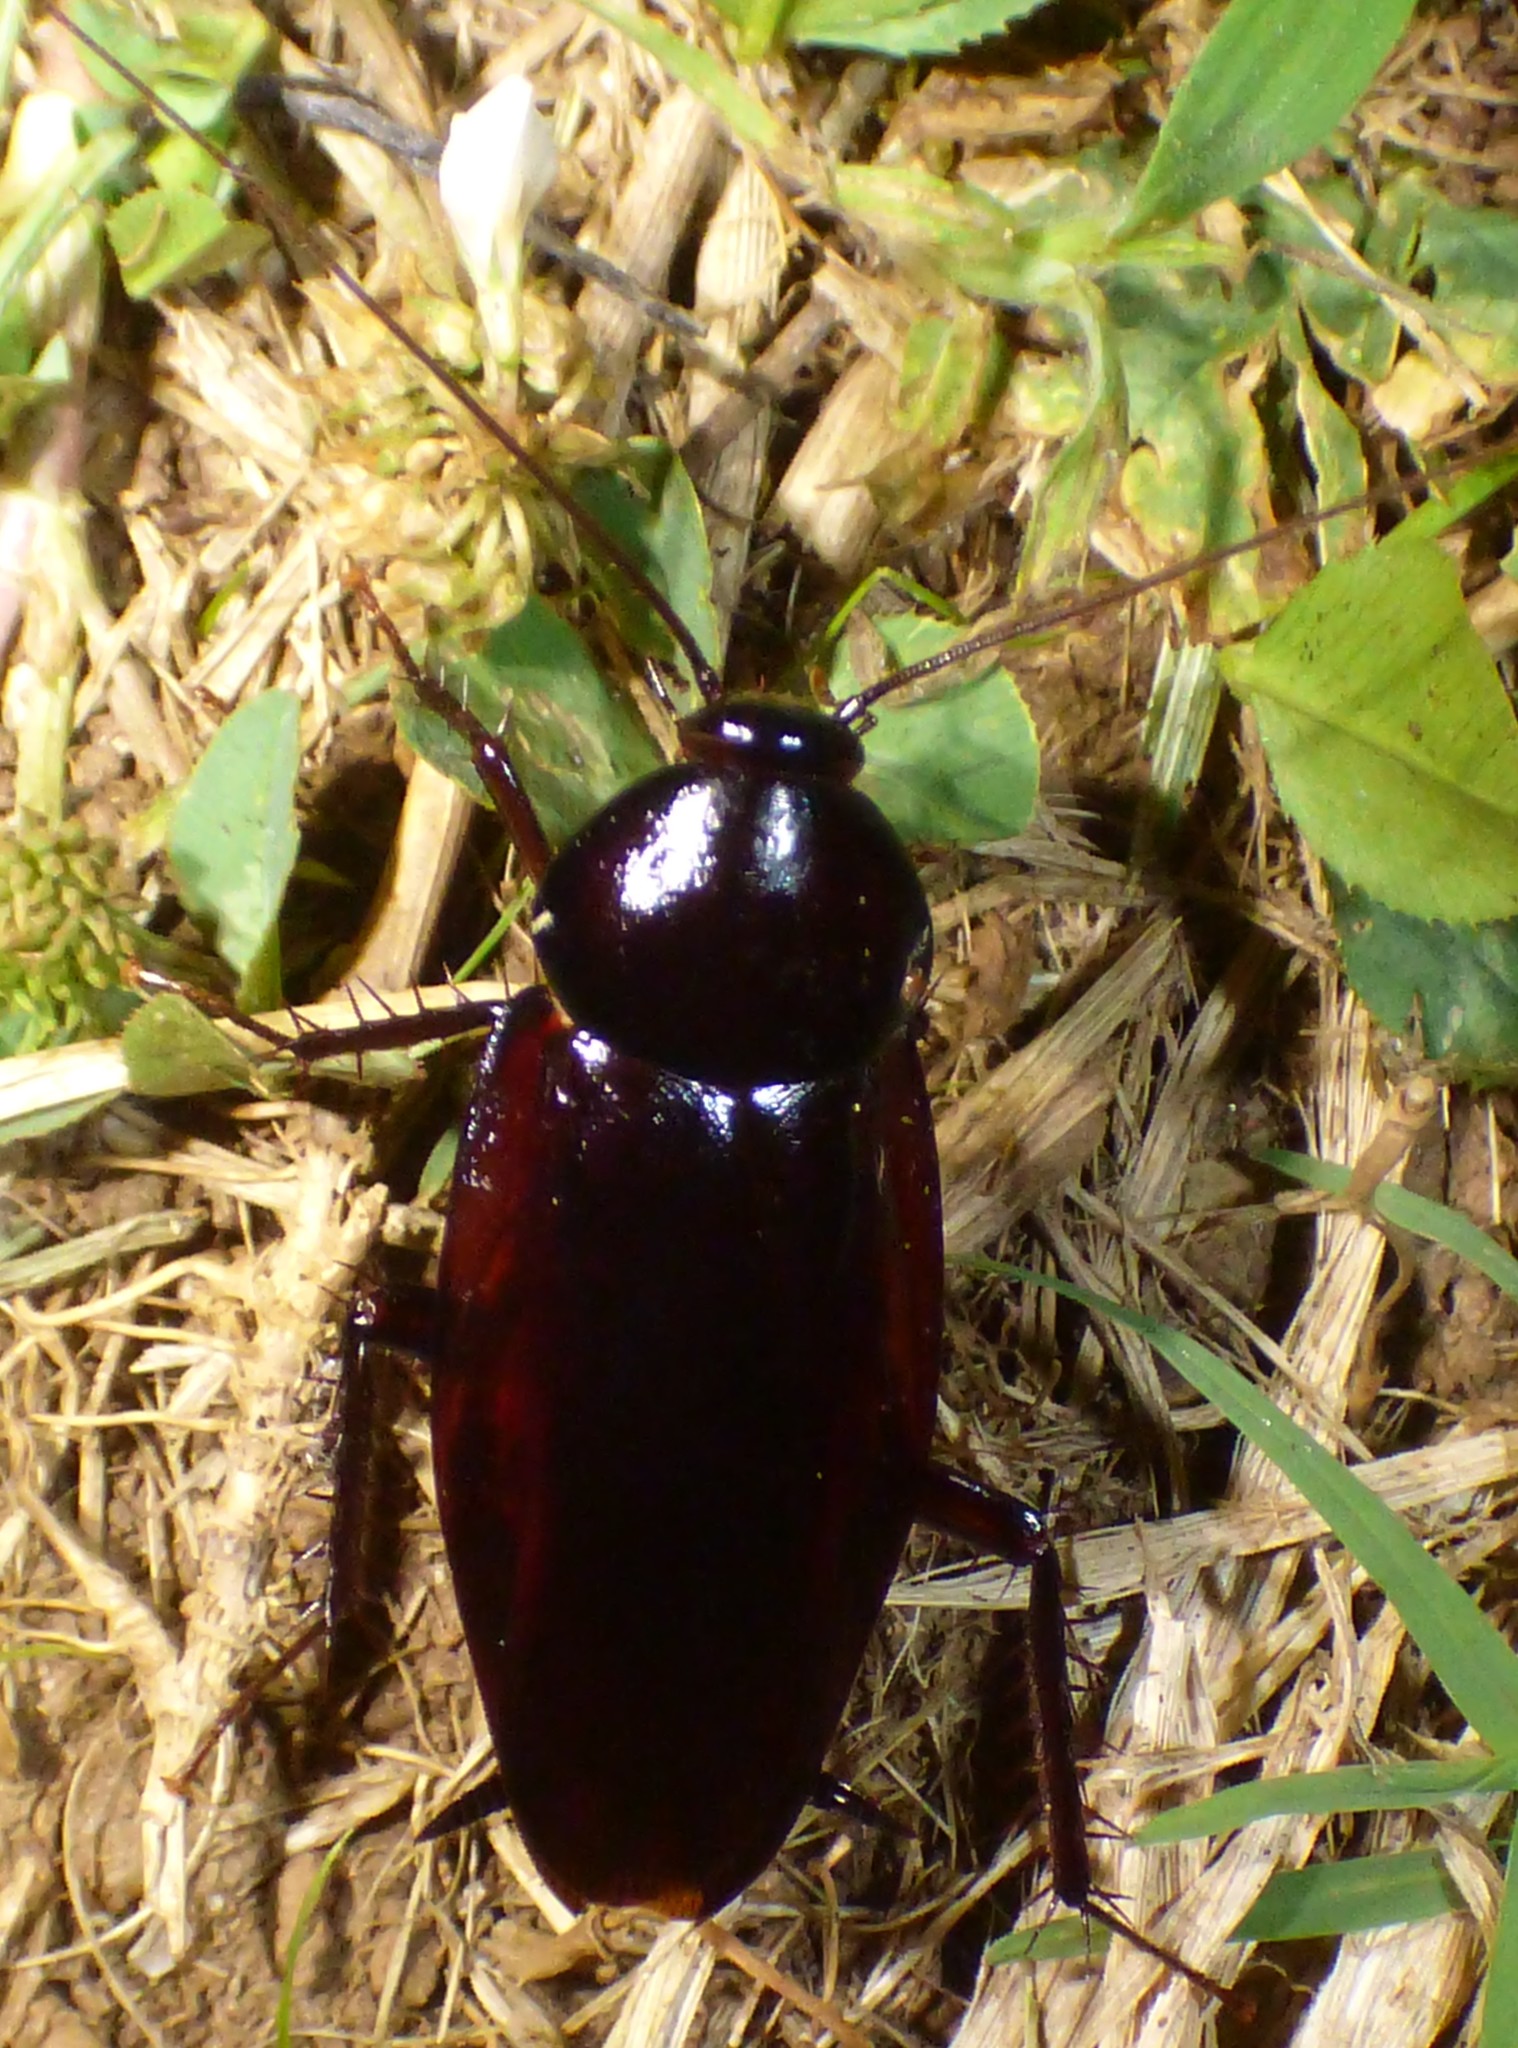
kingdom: Animalia
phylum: Arthropoda
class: Insecta
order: Blattodea
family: Blattidae
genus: Periplaneta
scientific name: Periplaneta fuliginosa
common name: Smokeybrown cockroad
